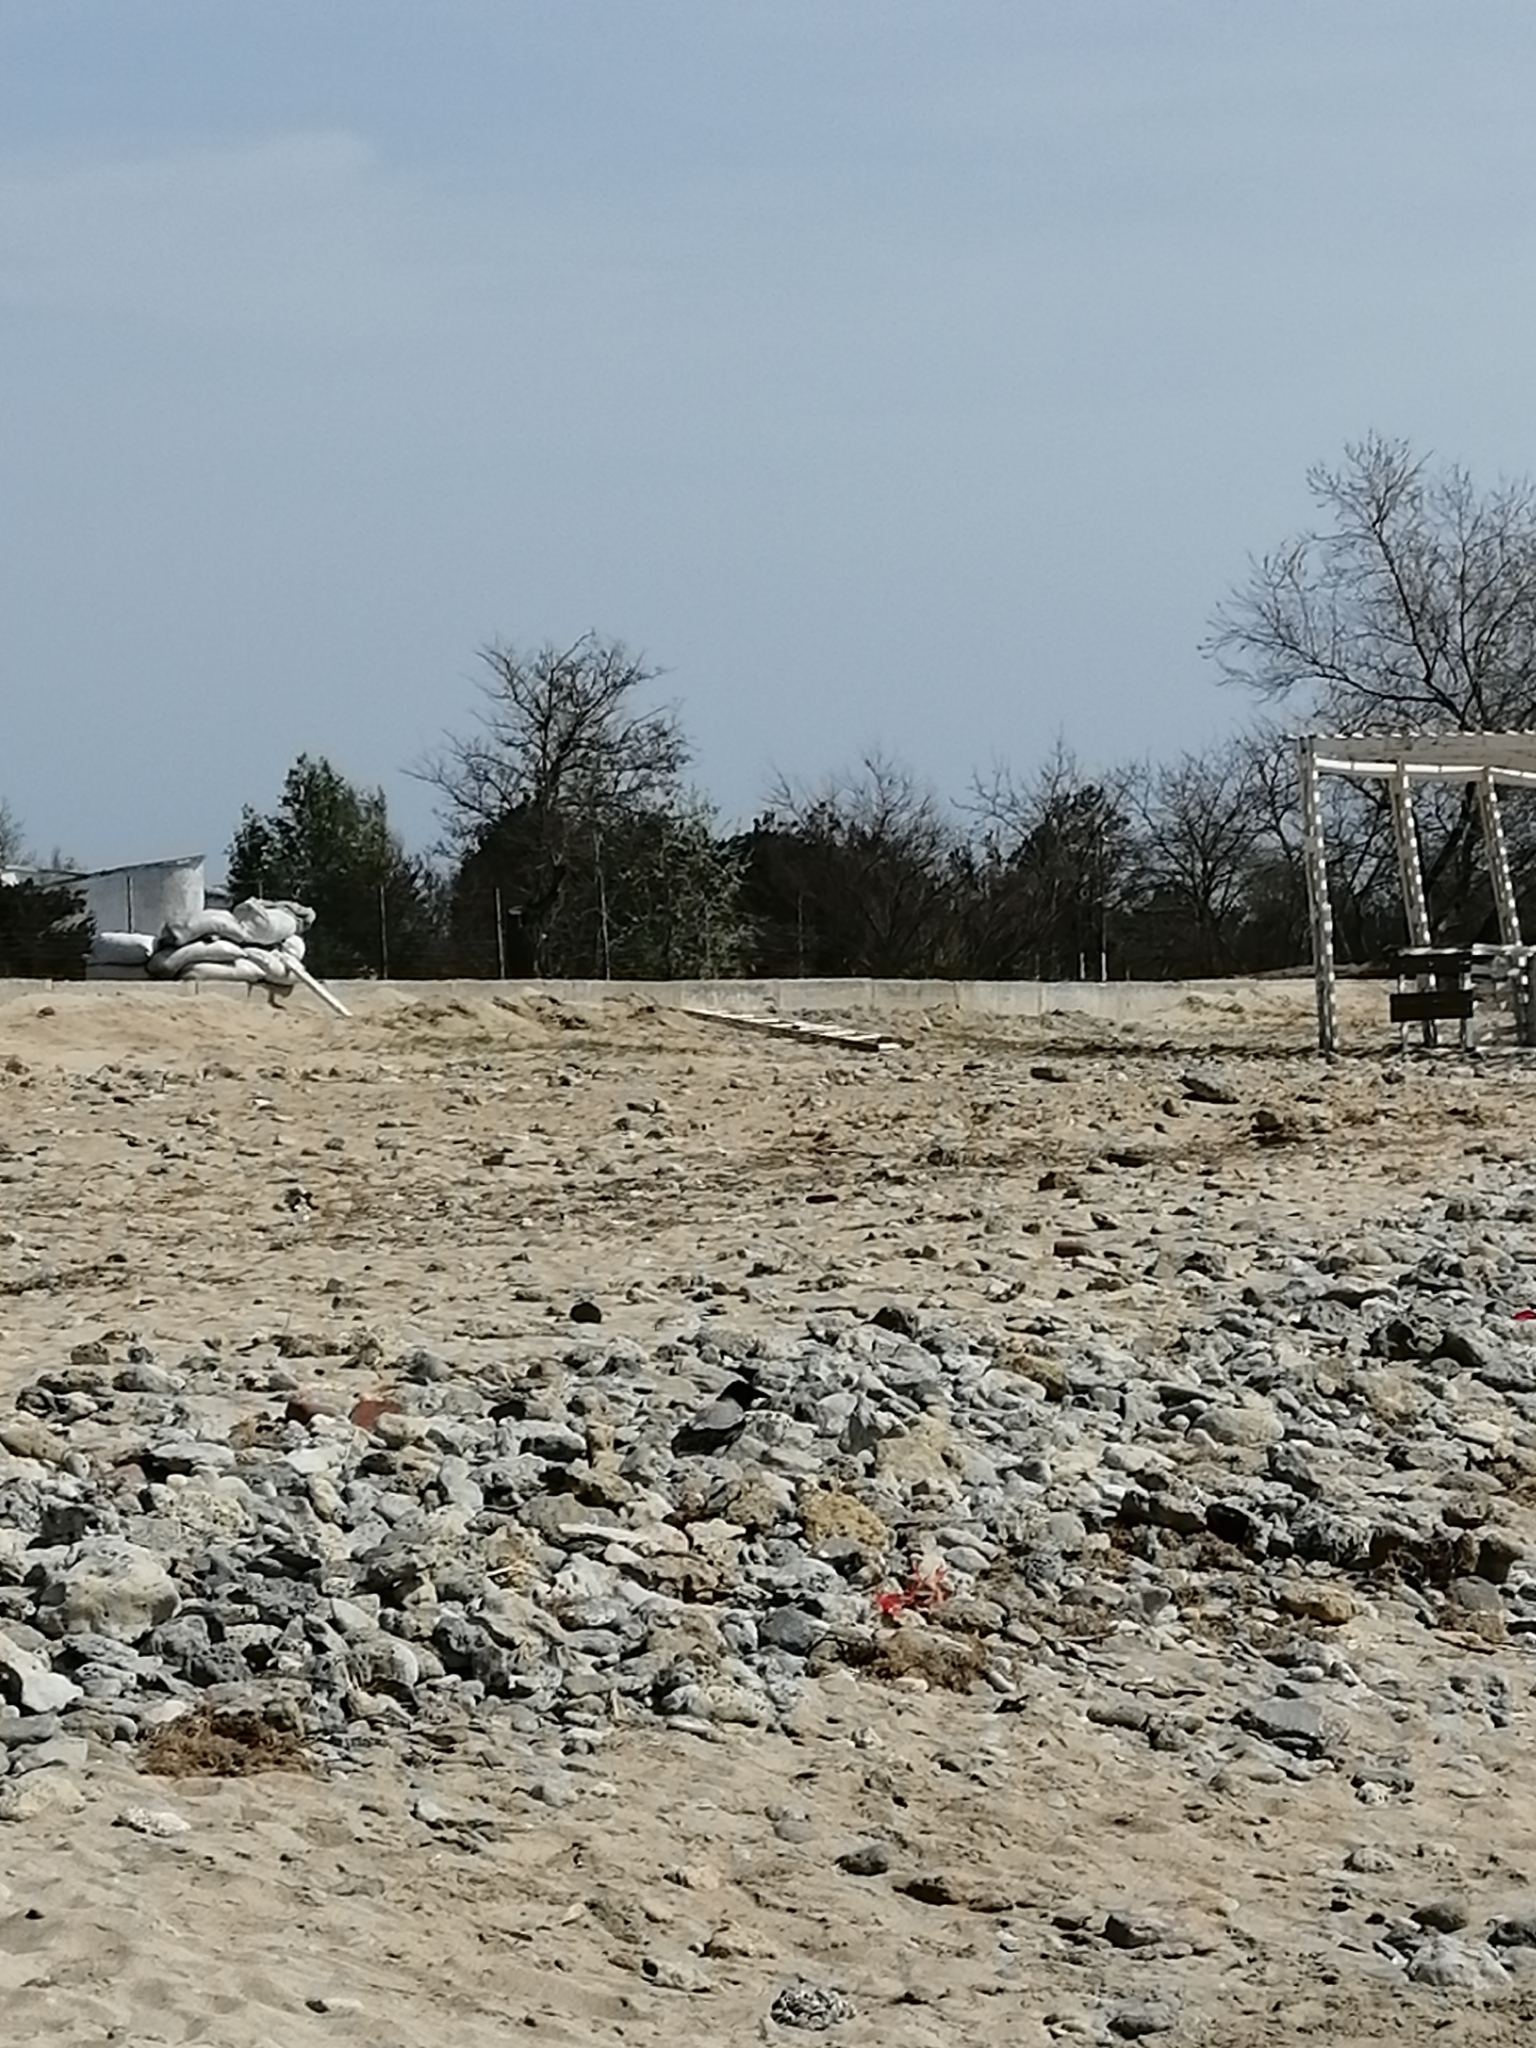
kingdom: Animalia
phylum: Chordata
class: Aves
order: Passeriformes
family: Corvidae
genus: Corvus
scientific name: Corvus cornix
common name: Hooded crow
